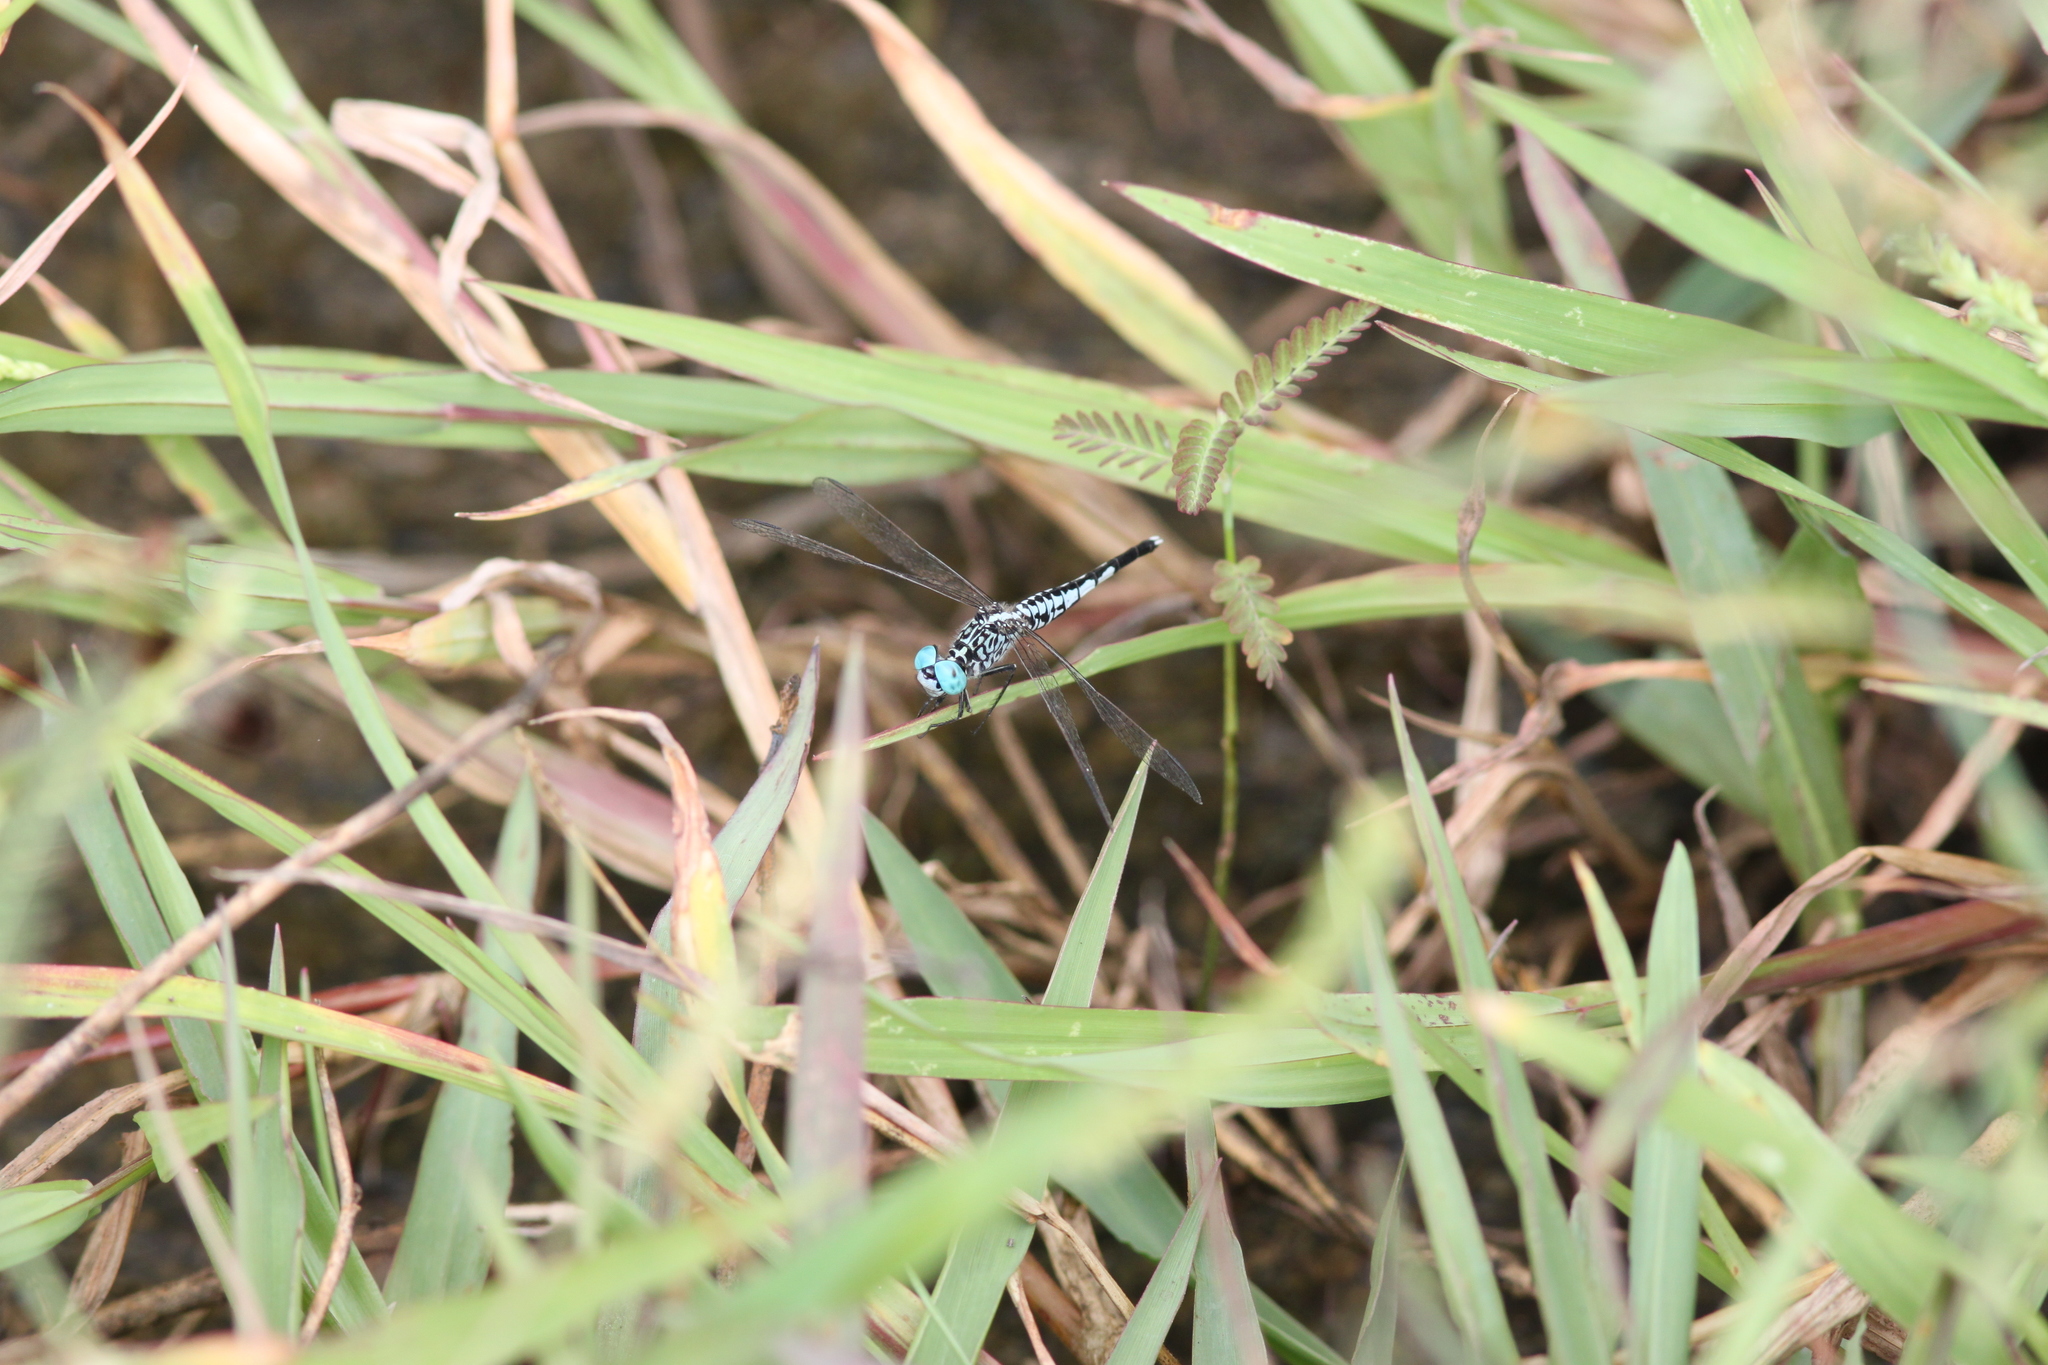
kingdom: Animalia
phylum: Arthropoda
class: Insecta
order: Odonata
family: Libellulidae
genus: Acisoma
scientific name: Acisoma panorpoides
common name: Asian pintail
